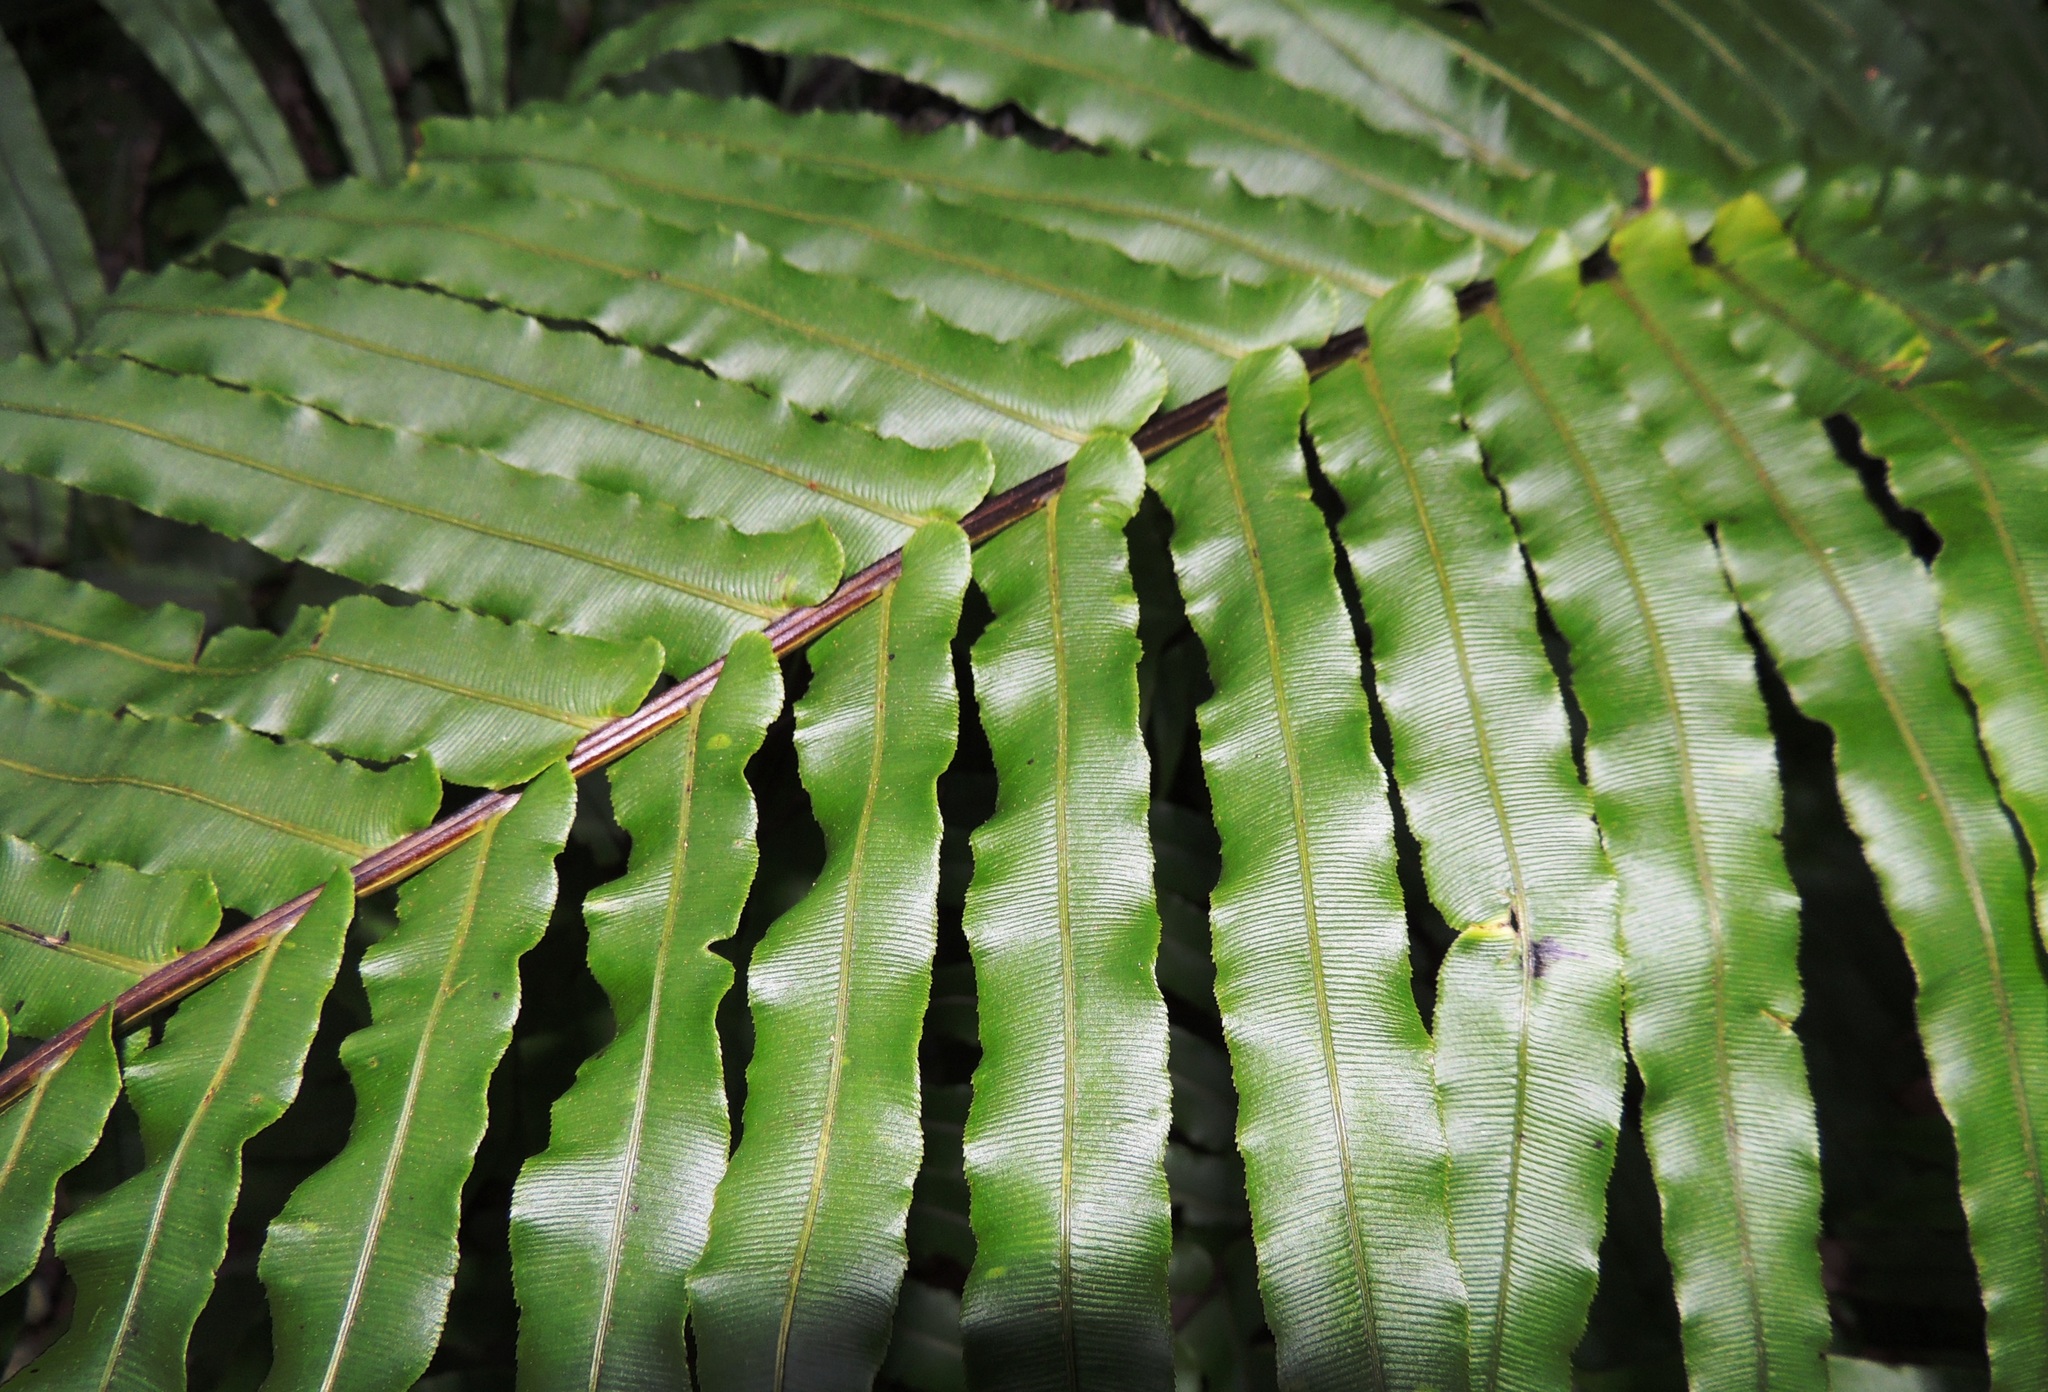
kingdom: Plantae
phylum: Tracheophyta
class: Polypodiopsida
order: Polypodiales
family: Blechnaceae
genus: Parablechnum
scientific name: Parablechnum novae-zelandiae
